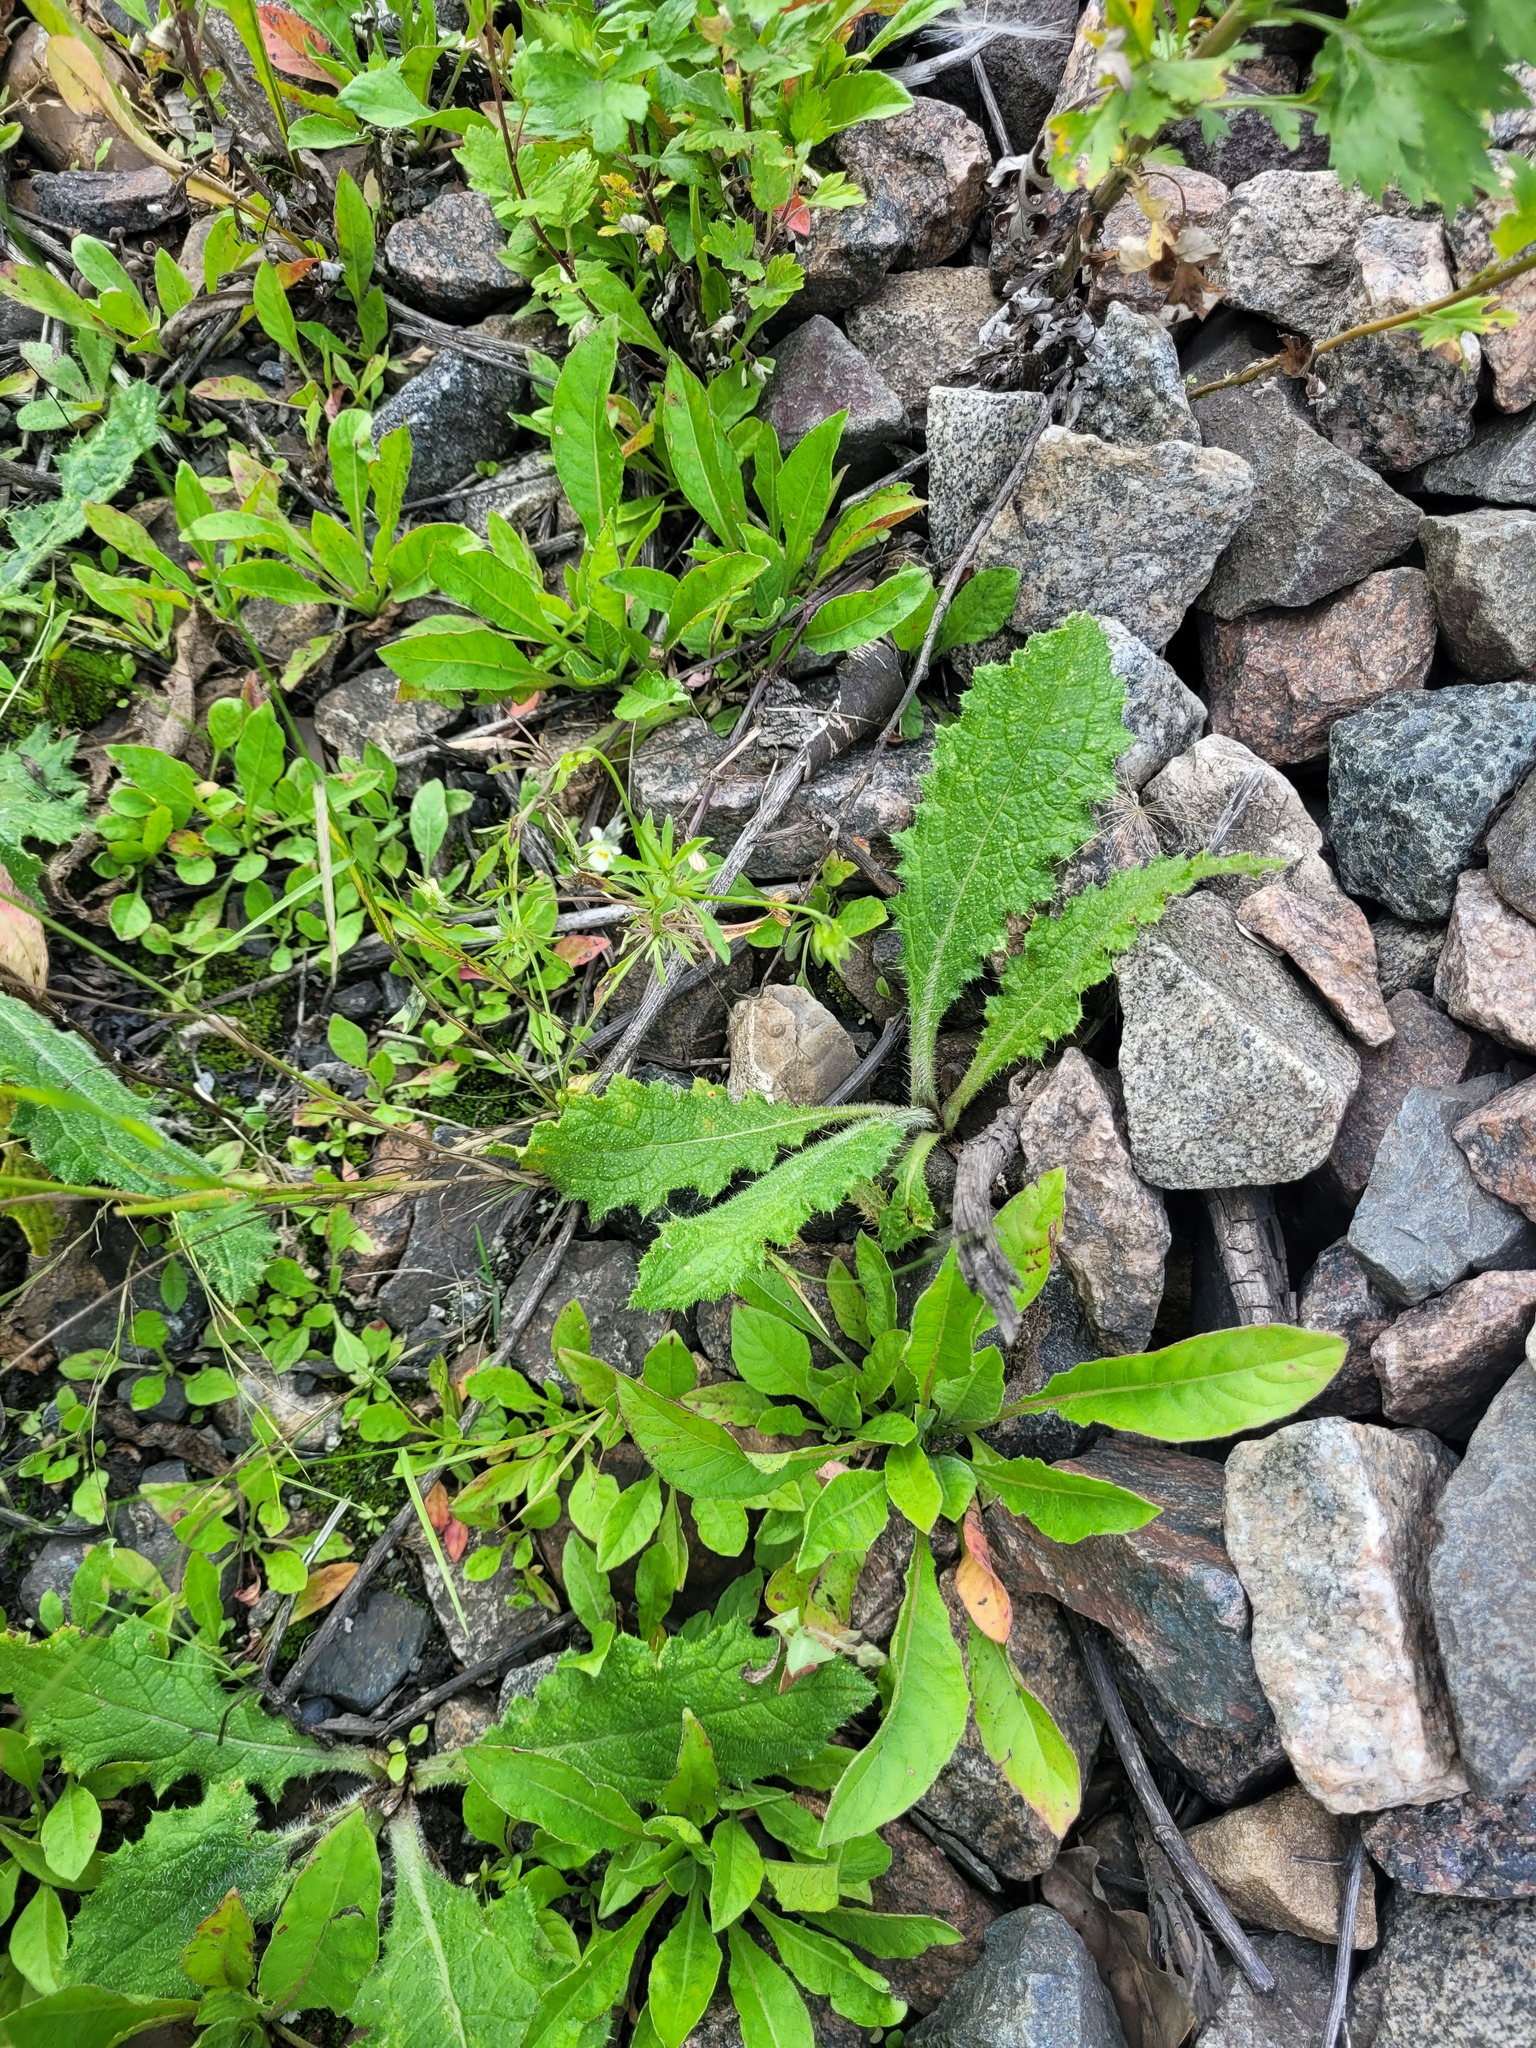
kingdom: Plantae
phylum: Tracheophyta
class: Magnoliopsida
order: Asterales
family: Asteraceae
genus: Cirsium
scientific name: Cirsium vulgare
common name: Bull thistle
